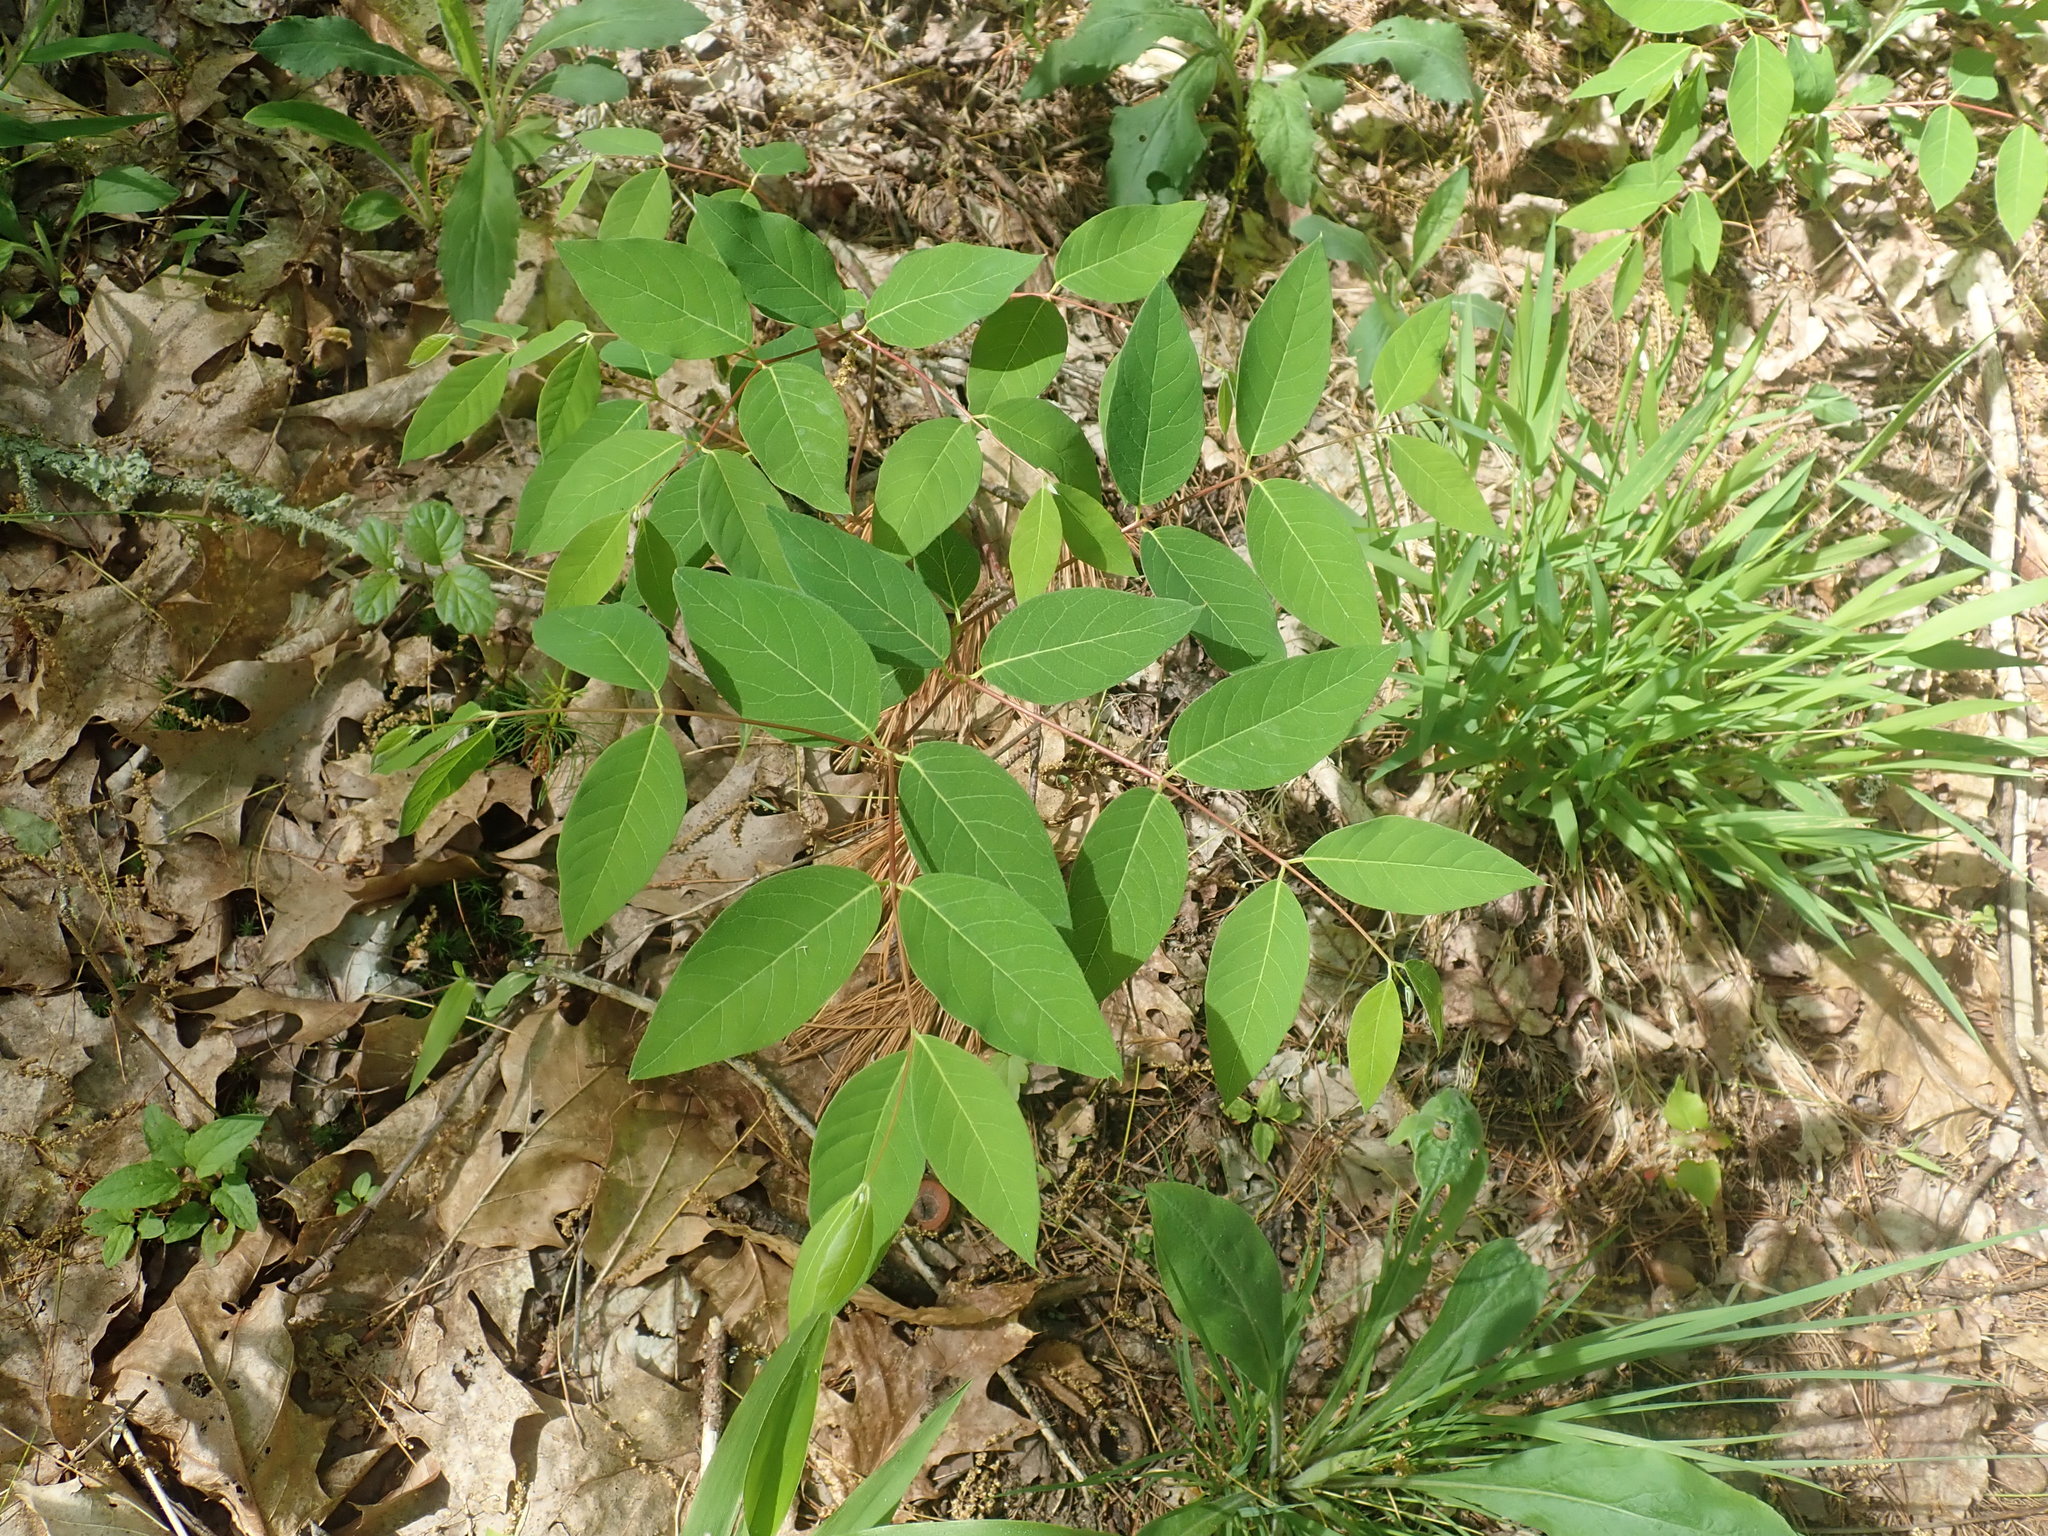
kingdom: Plantae
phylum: Tracheophyta
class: Magnoliopsida
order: Gentianales
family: Apocynaceae
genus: Apocynum
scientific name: Apocynum androsaemifolium
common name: Spreading dogbane
